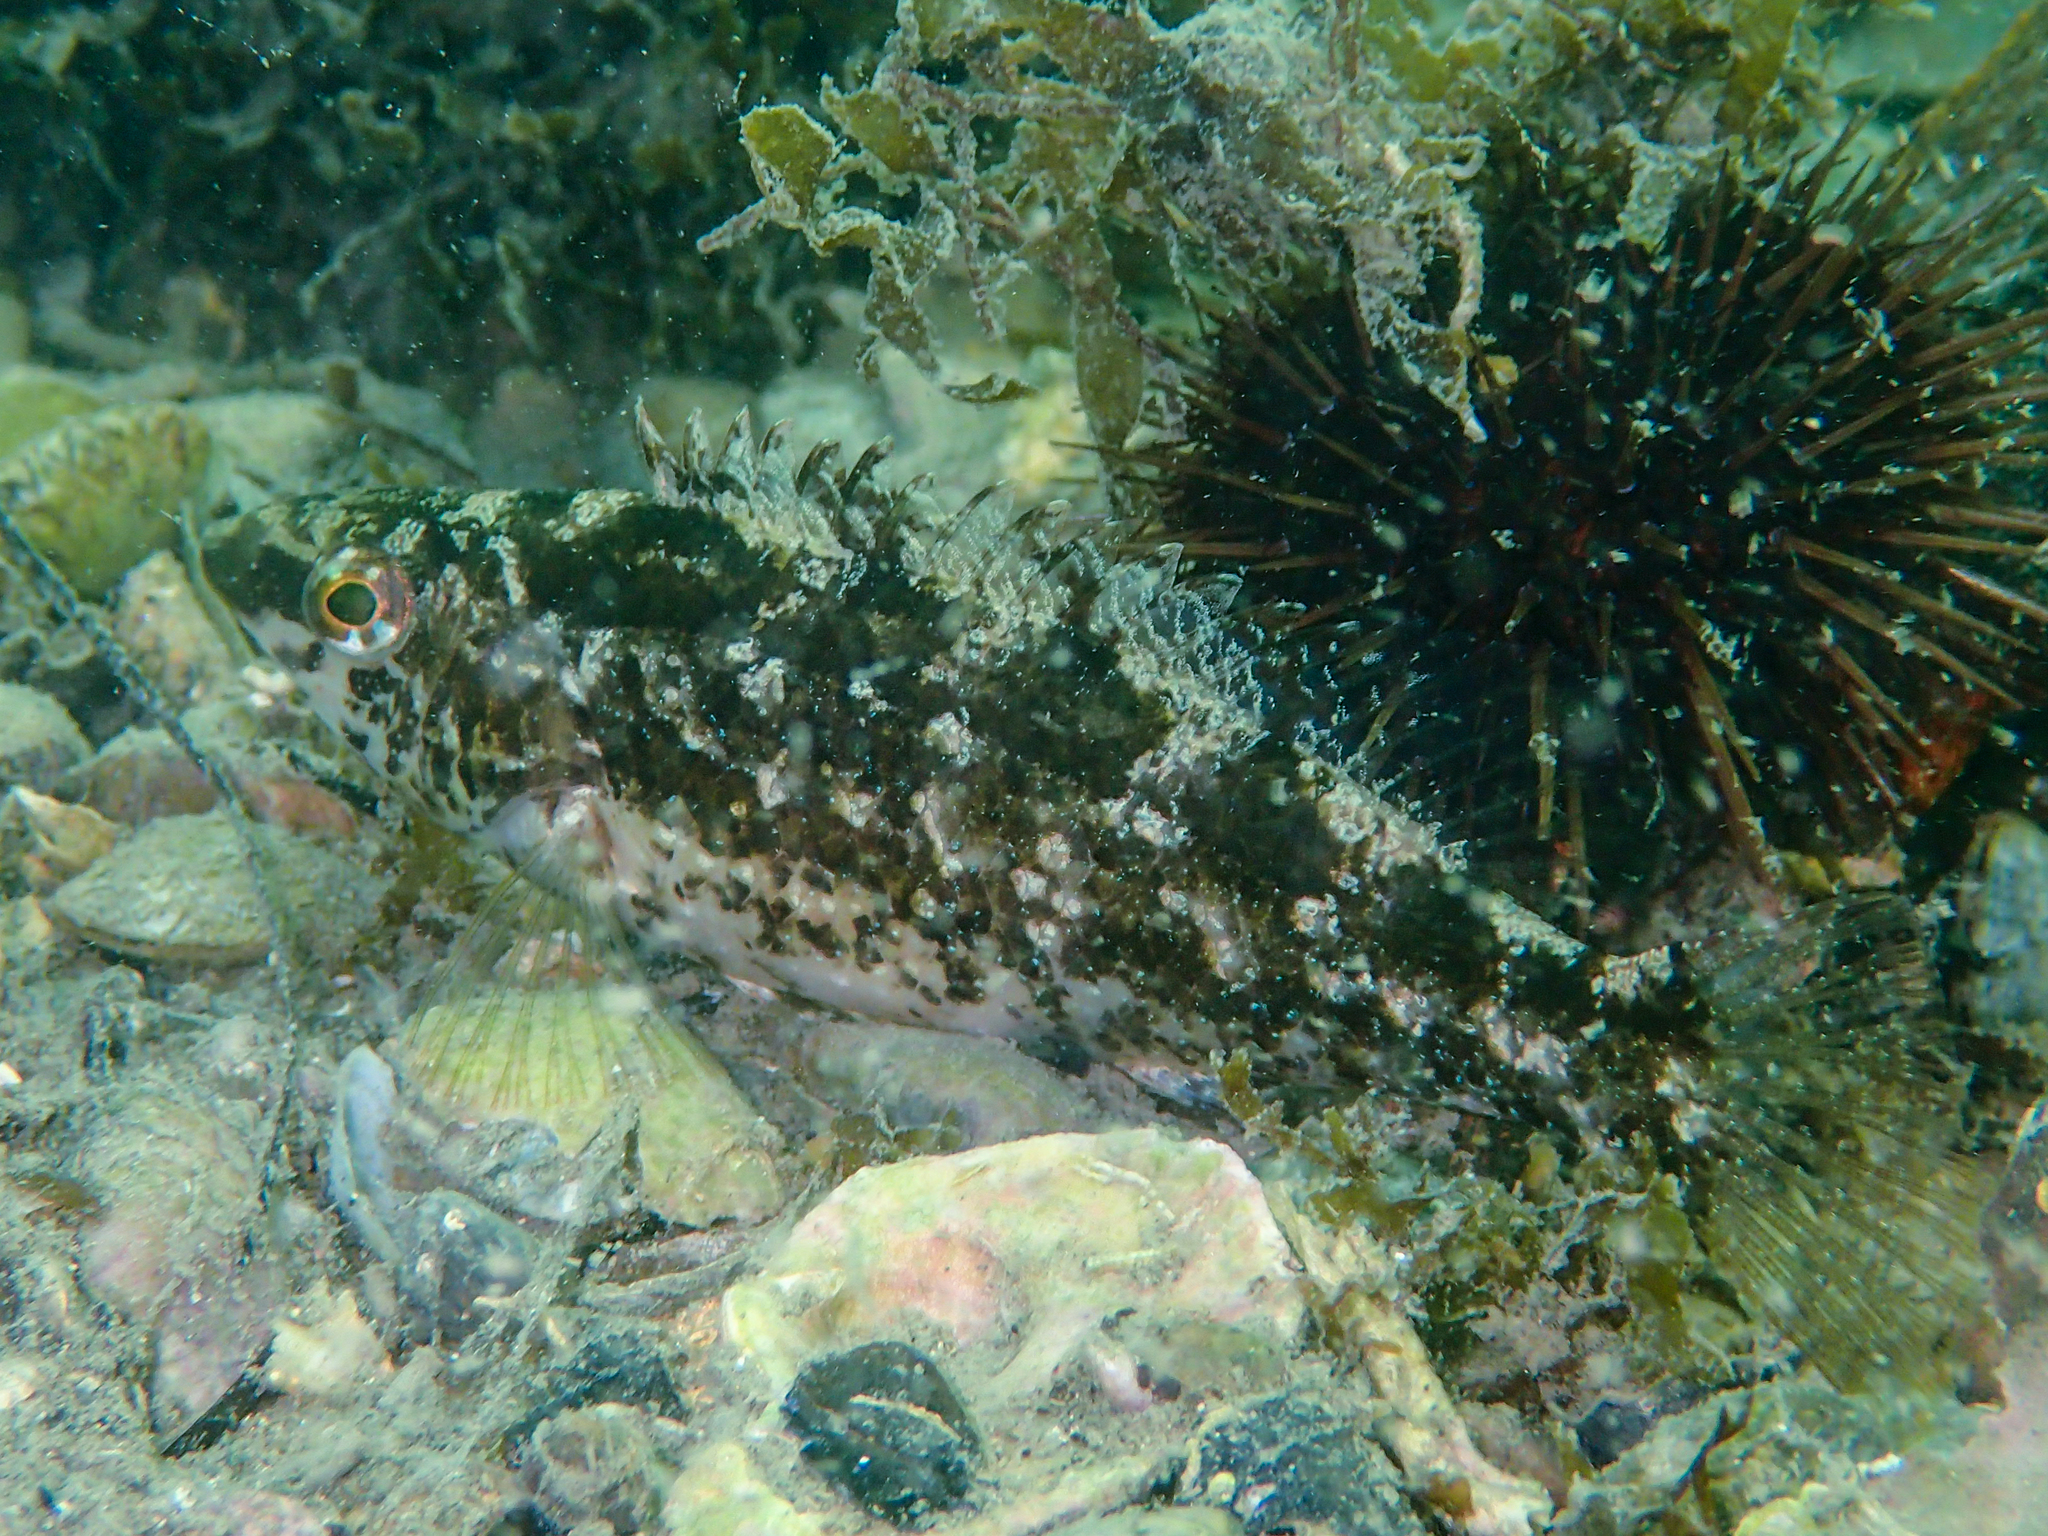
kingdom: Animalia
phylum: Chordata
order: Perciformes
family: Labridae
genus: Symphodus
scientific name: Symphodus cinereus
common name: Grey wrasse
